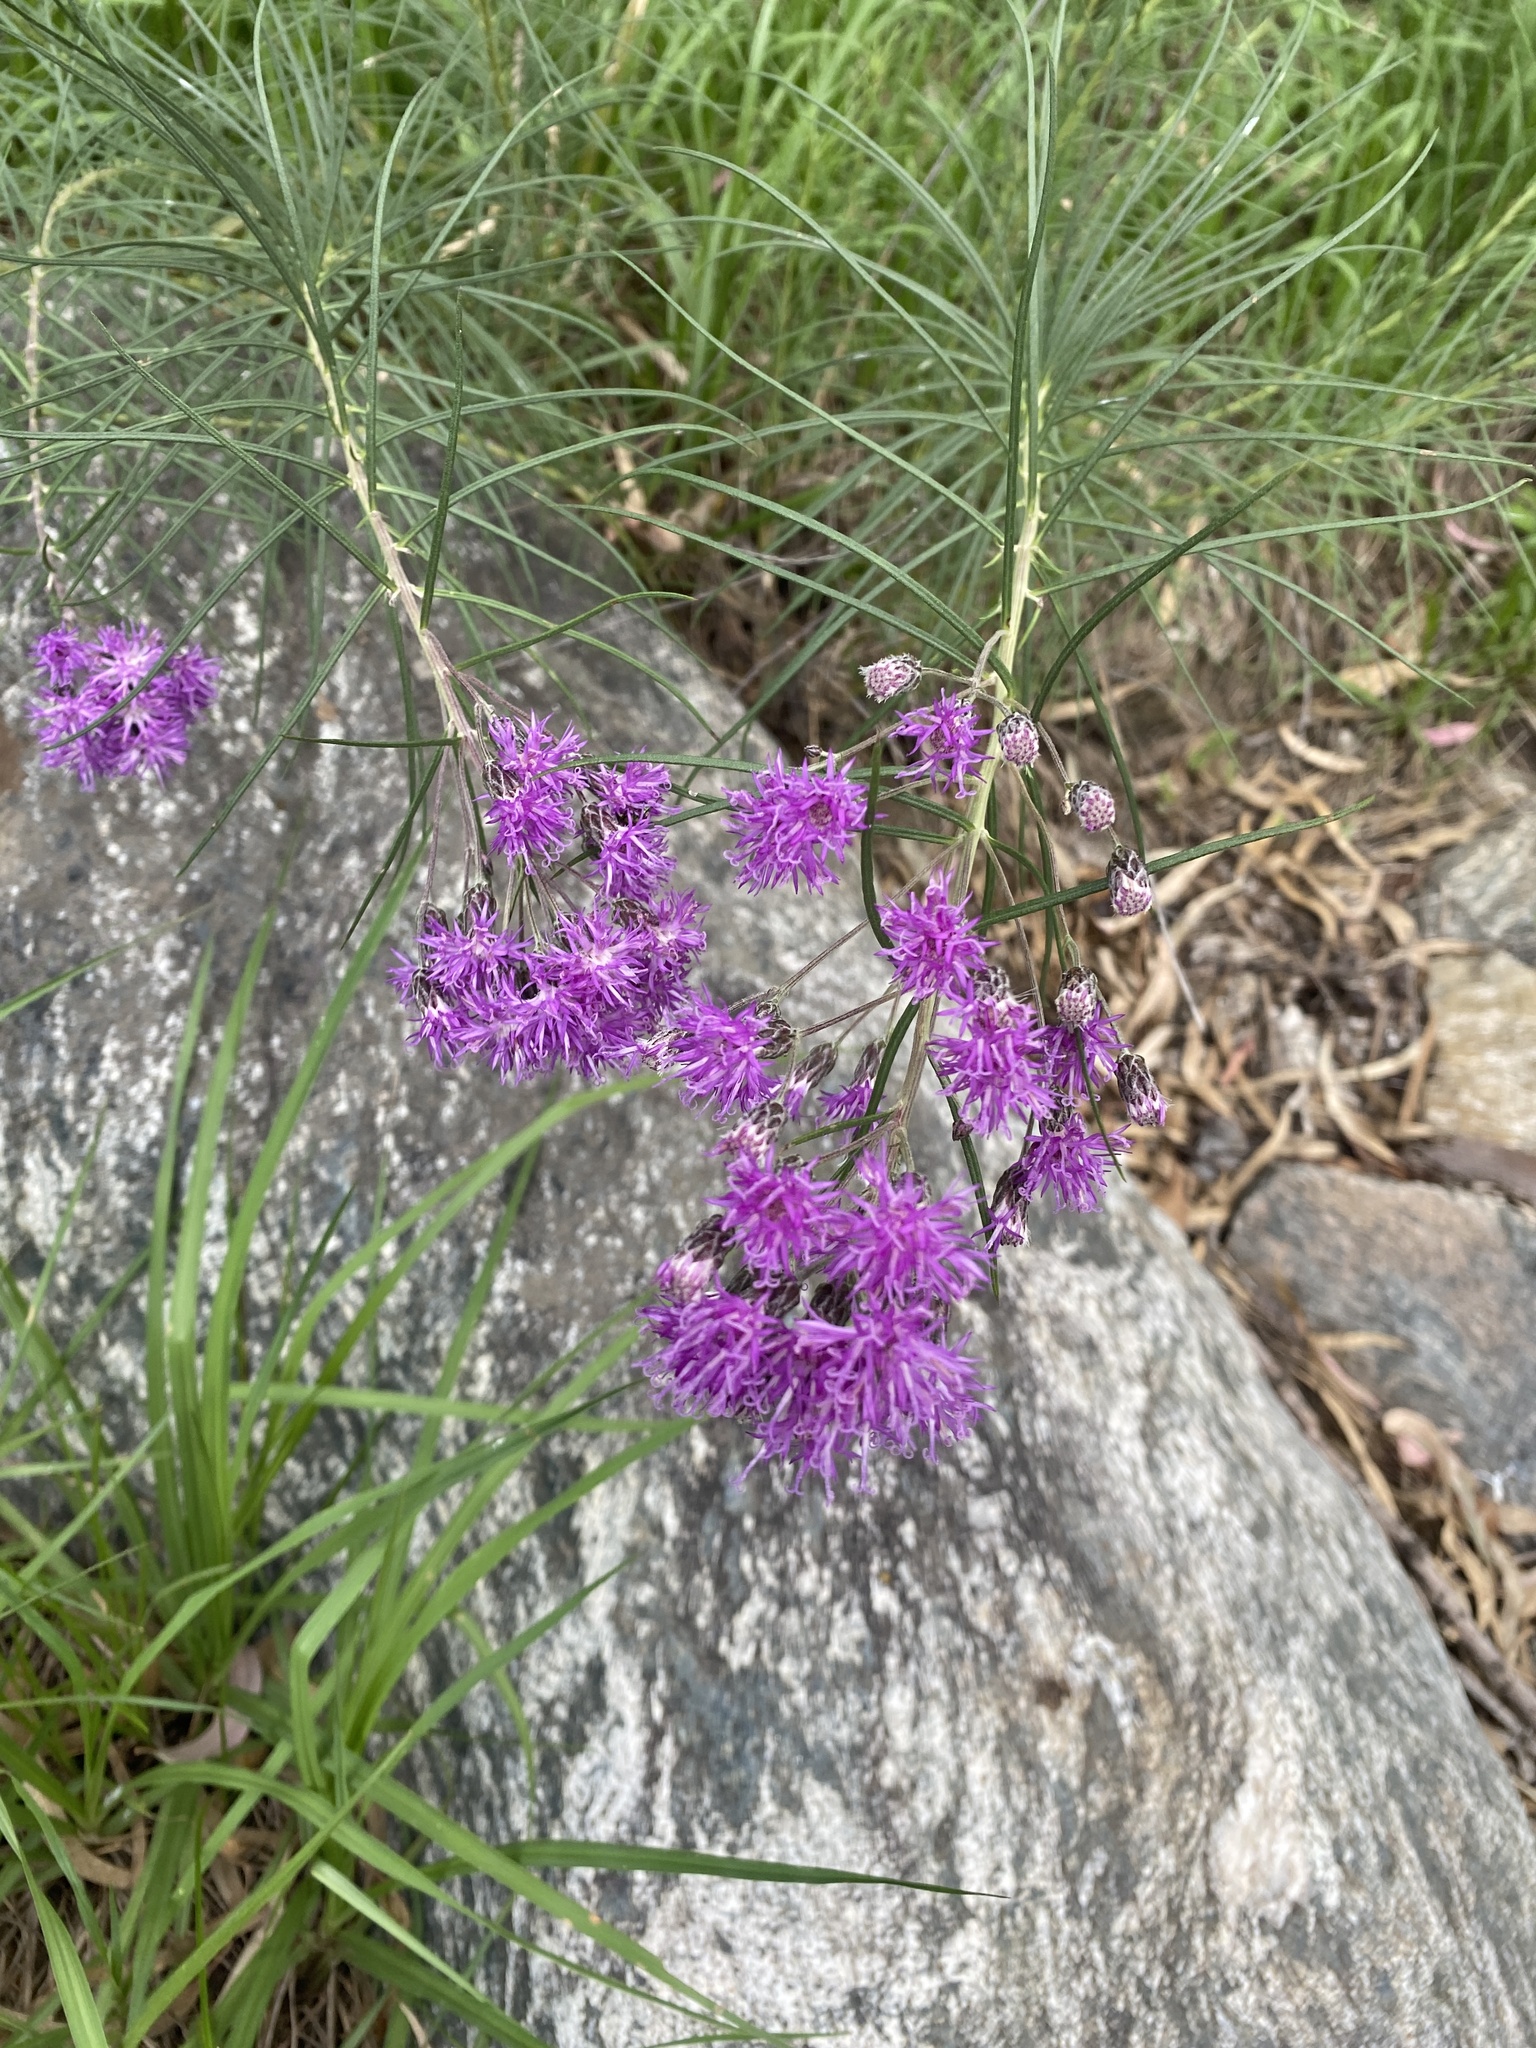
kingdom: Plantae
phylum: Tracheophyta
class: Magnoliopsida
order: Asterales
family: Asteraceae
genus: Vernonanthura
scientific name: Vernonanthura nudiflora
